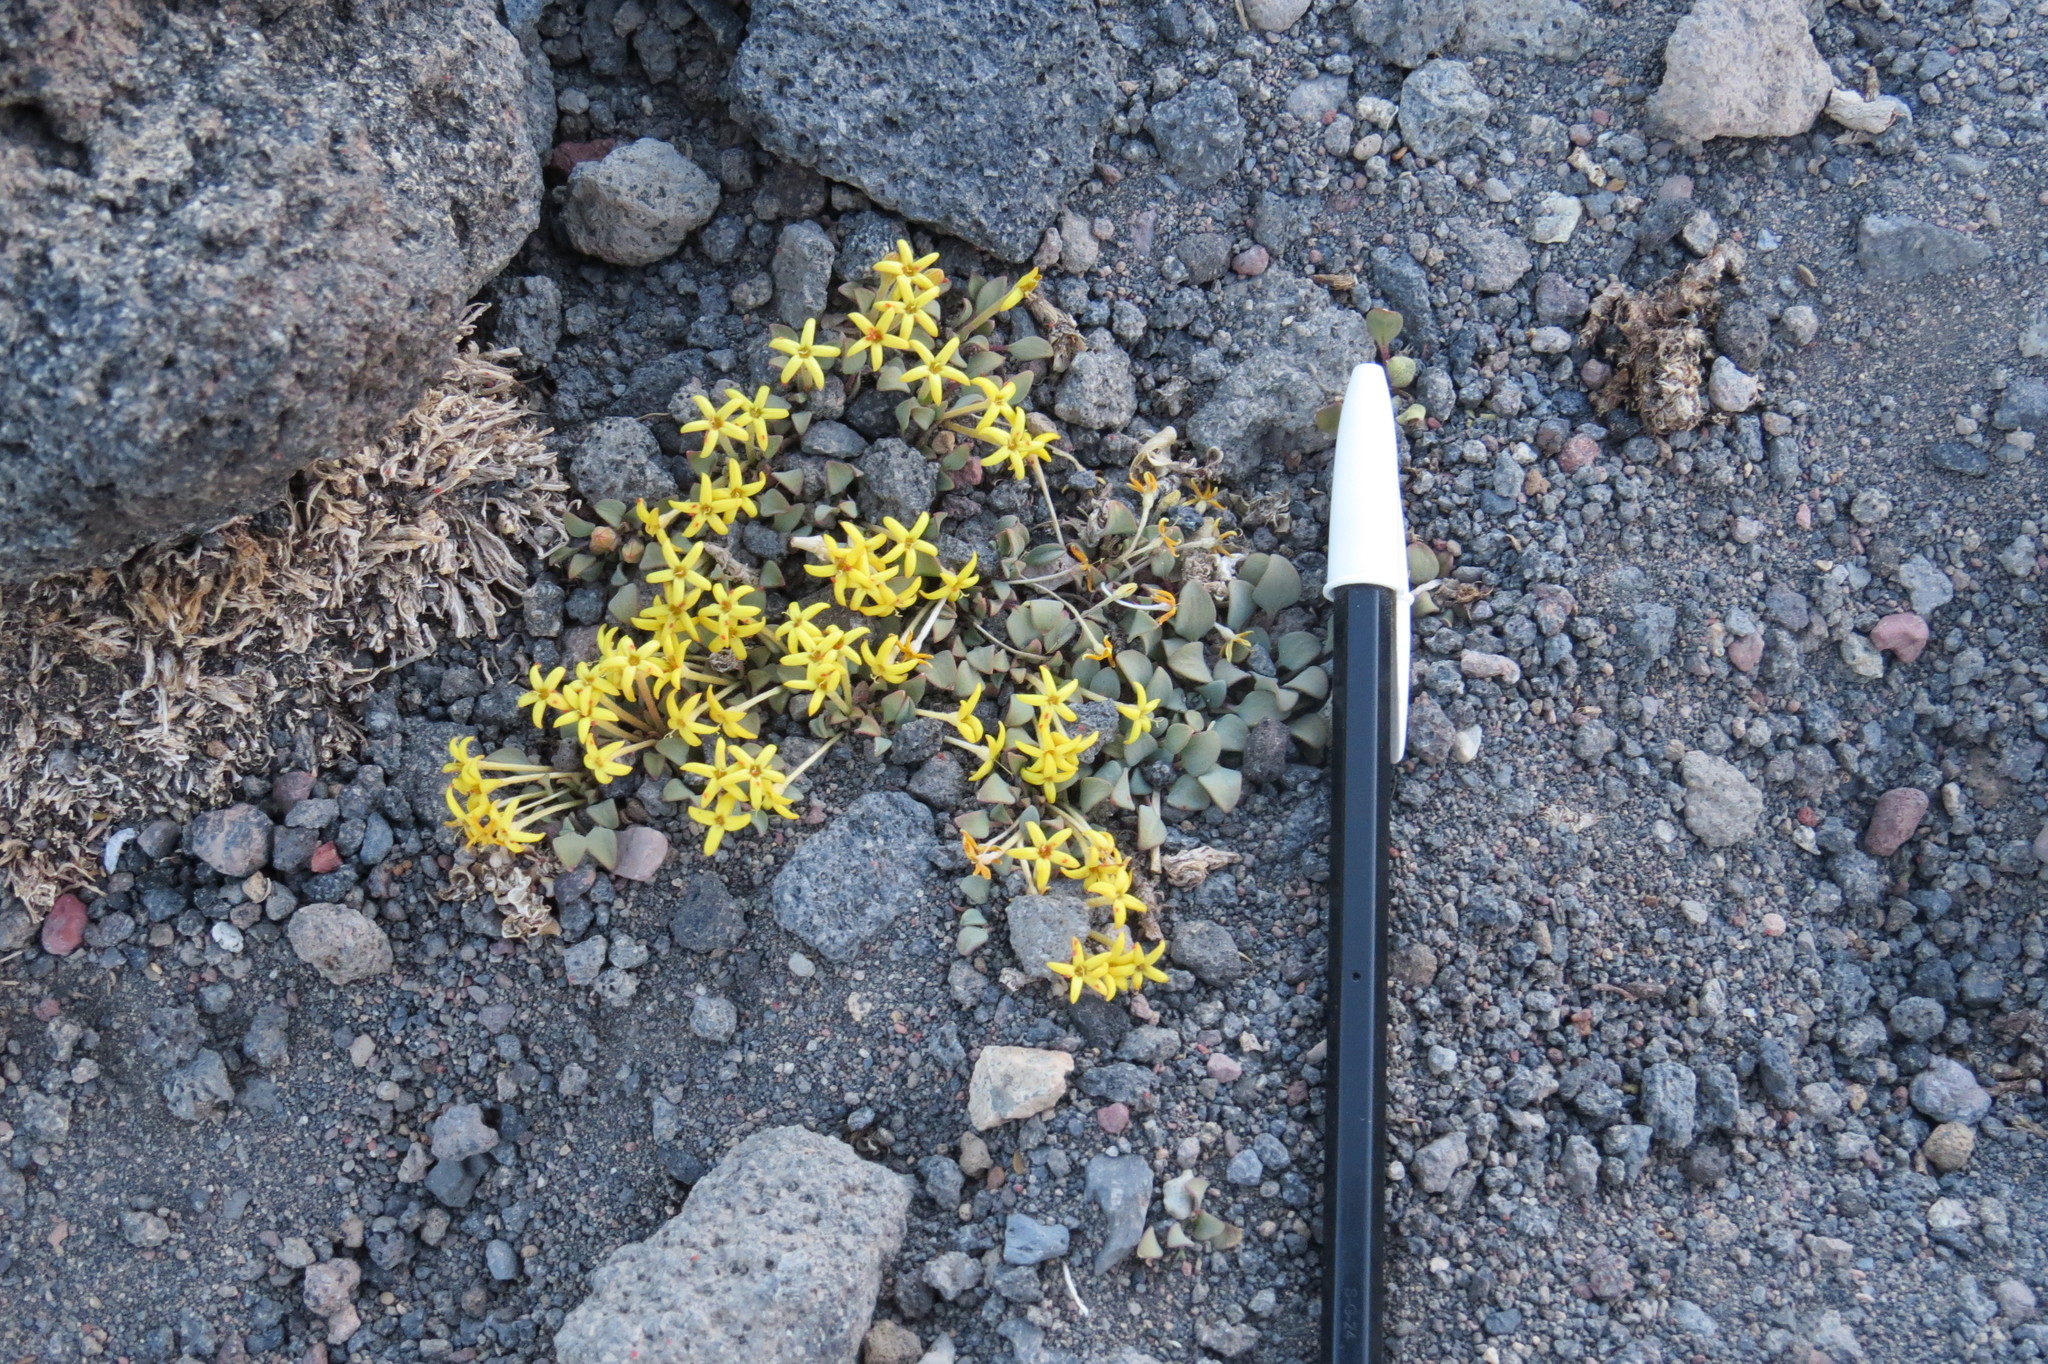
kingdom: Plantae
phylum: Tracheophyta
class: Magnoliopsida
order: Gentianales
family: Rubiaceae
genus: Oreopolus
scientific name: Oreopolus glacialis
